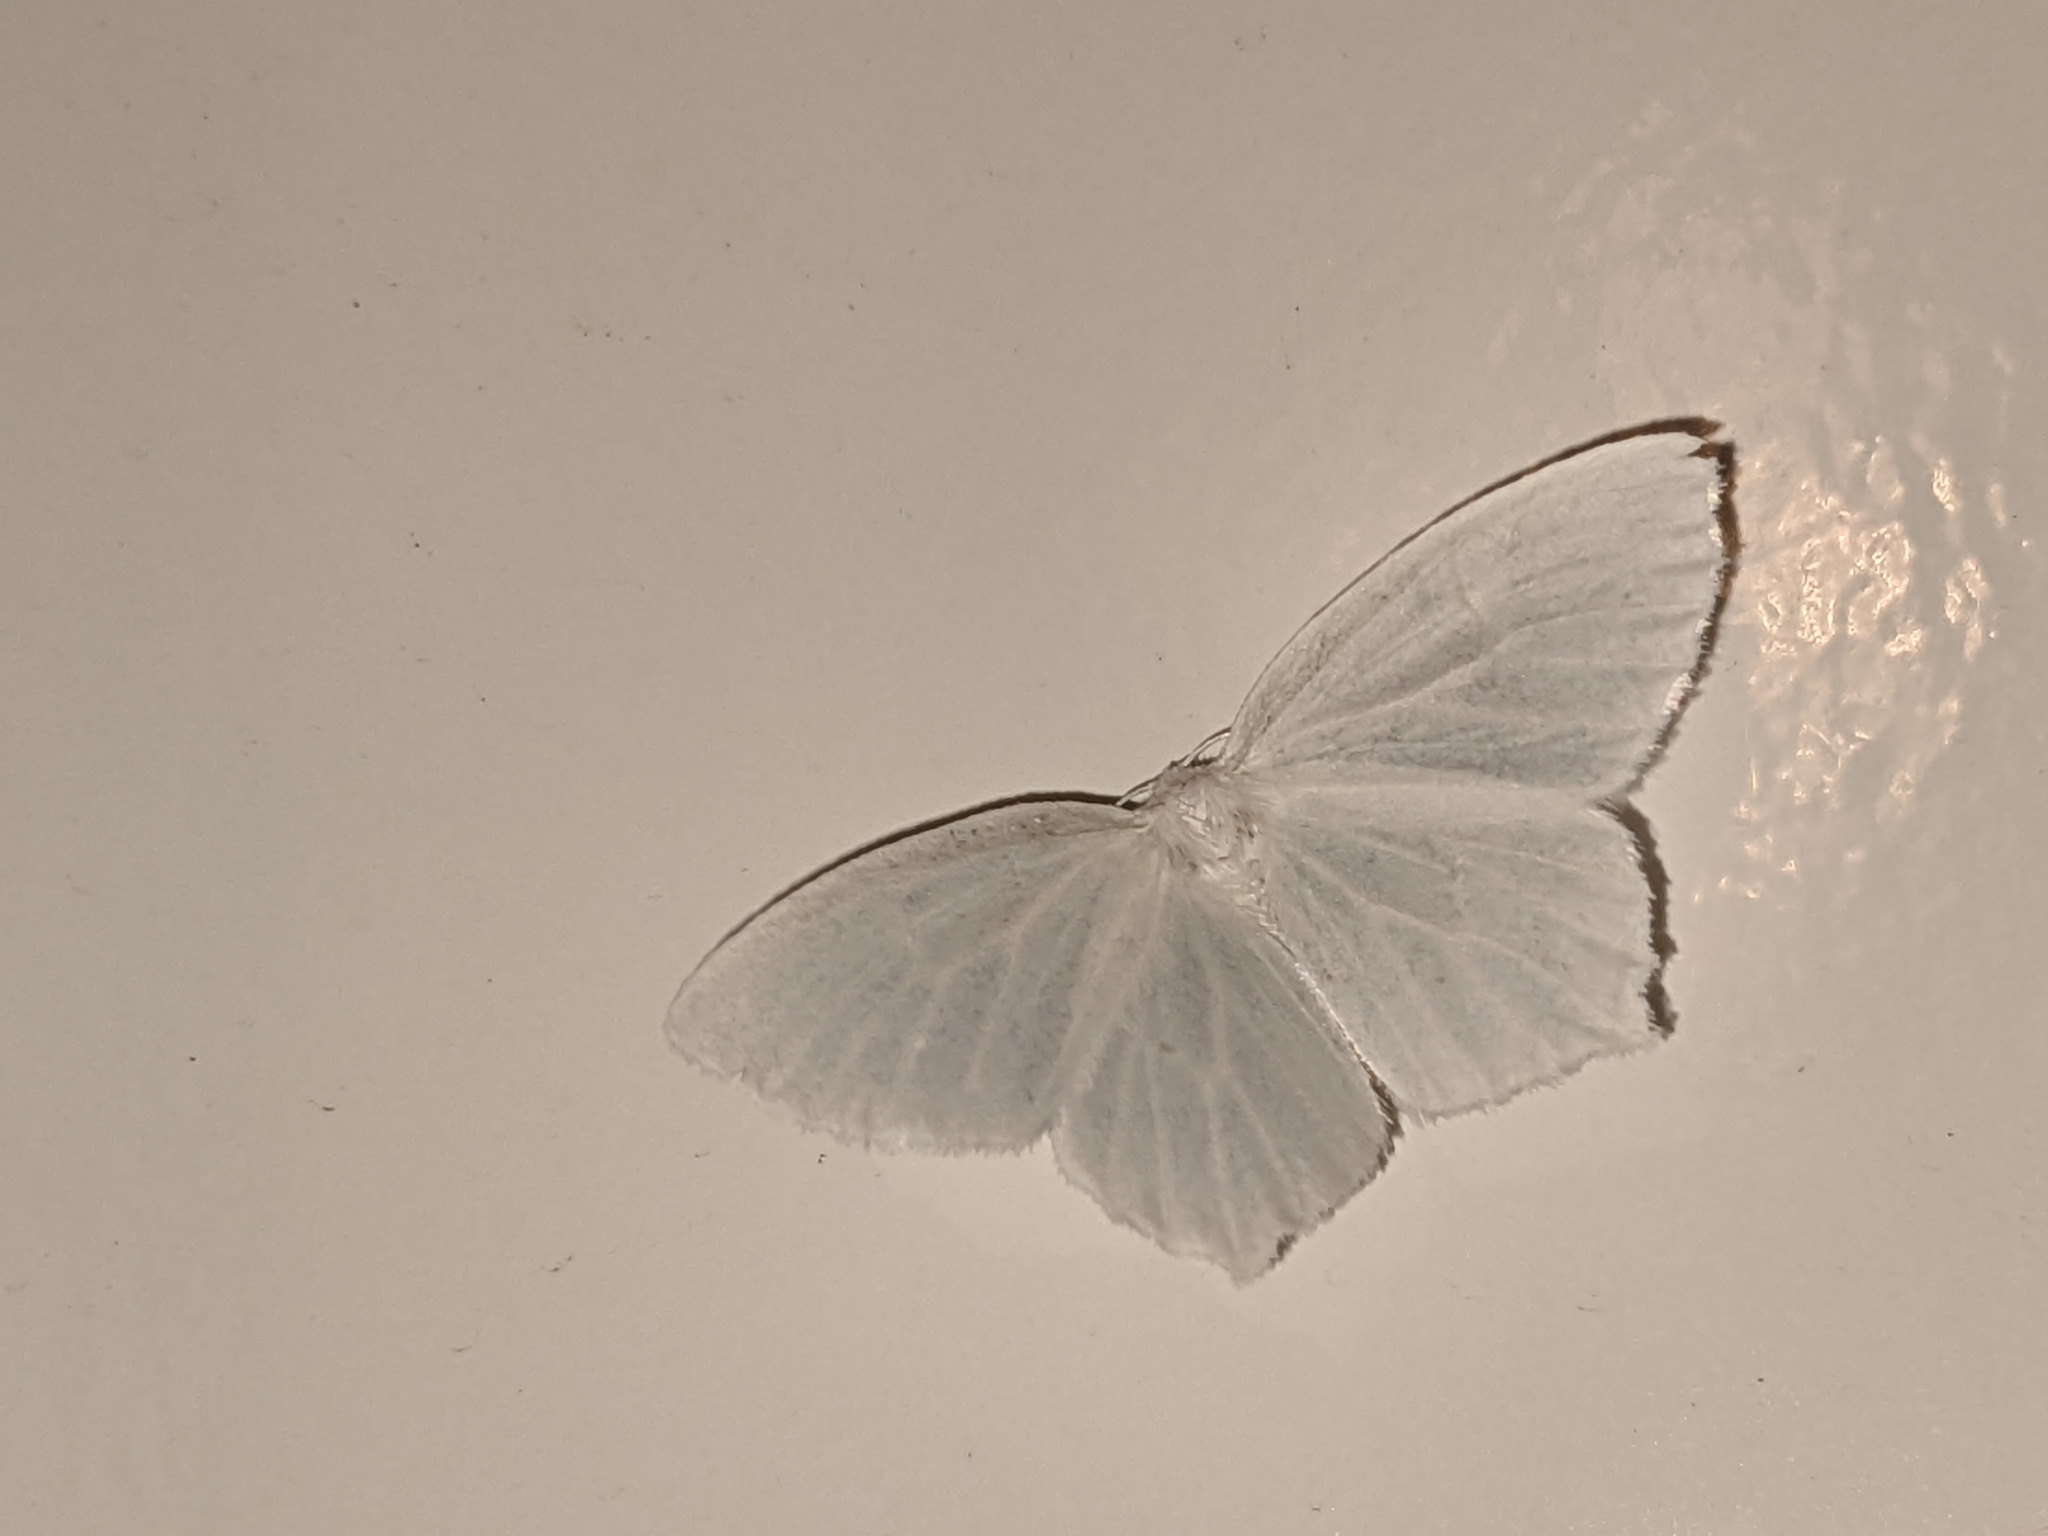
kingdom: Animalia
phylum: Arthropoda
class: Insecta
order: Lepidoptera
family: Geometridae
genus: Eugonobapta
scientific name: Eugonobapta nivosaria
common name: Snowy geometer
